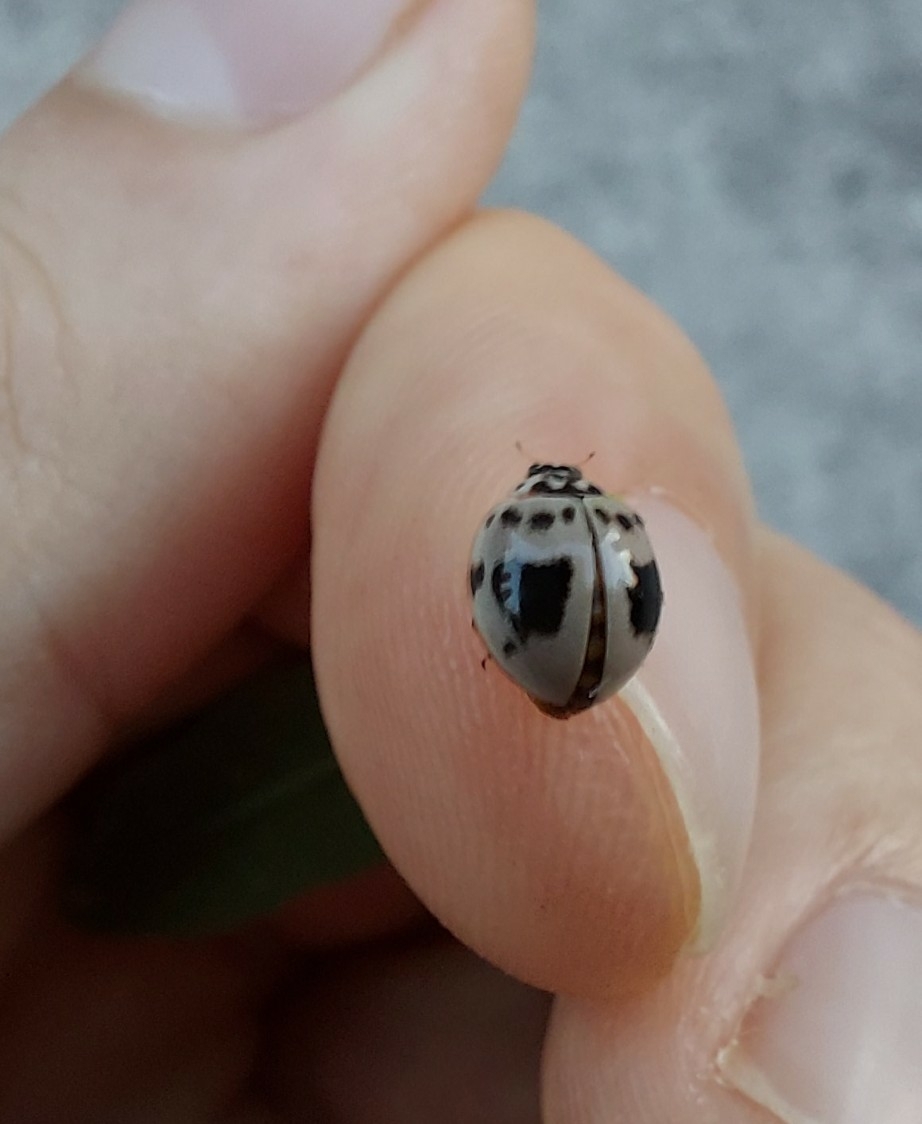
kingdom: Animalia
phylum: Arthropoda
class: Insecta
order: Coleoptera
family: Coccinellidae
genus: Olla
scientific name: Olla v-nigrum
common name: Ashy gray lady beetle
